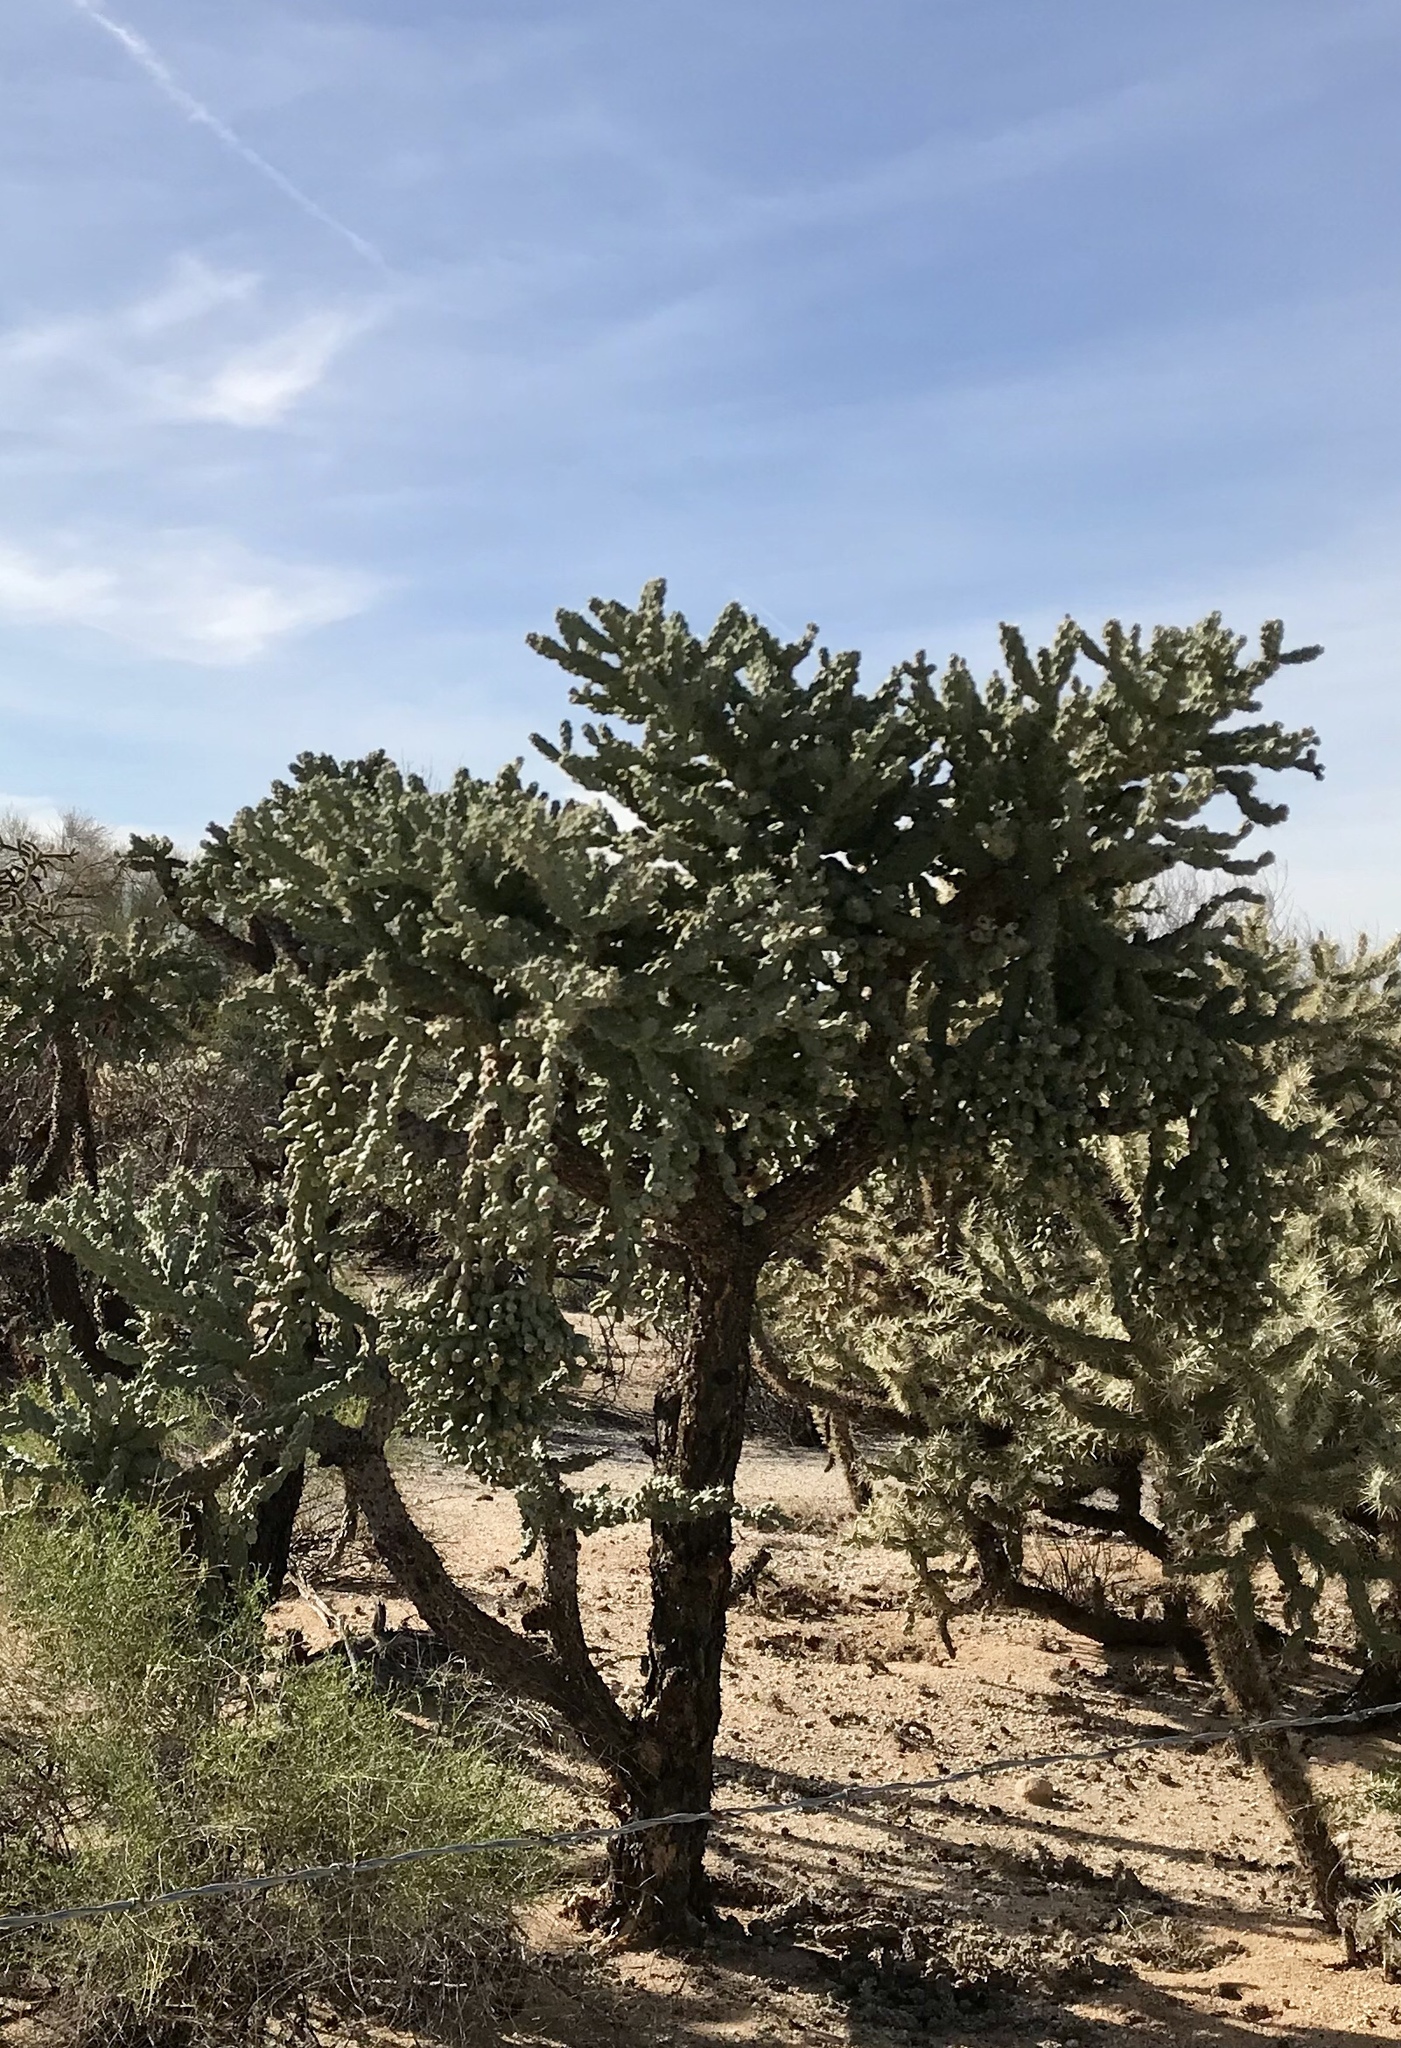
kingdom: Plantae
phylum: Tracheophyta
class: Magnoliopsida
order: Caryophyllales
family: Cactaceae
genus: Cylindropuntia
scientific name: Cylindropuntia fulgida
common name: Jumping cholla
